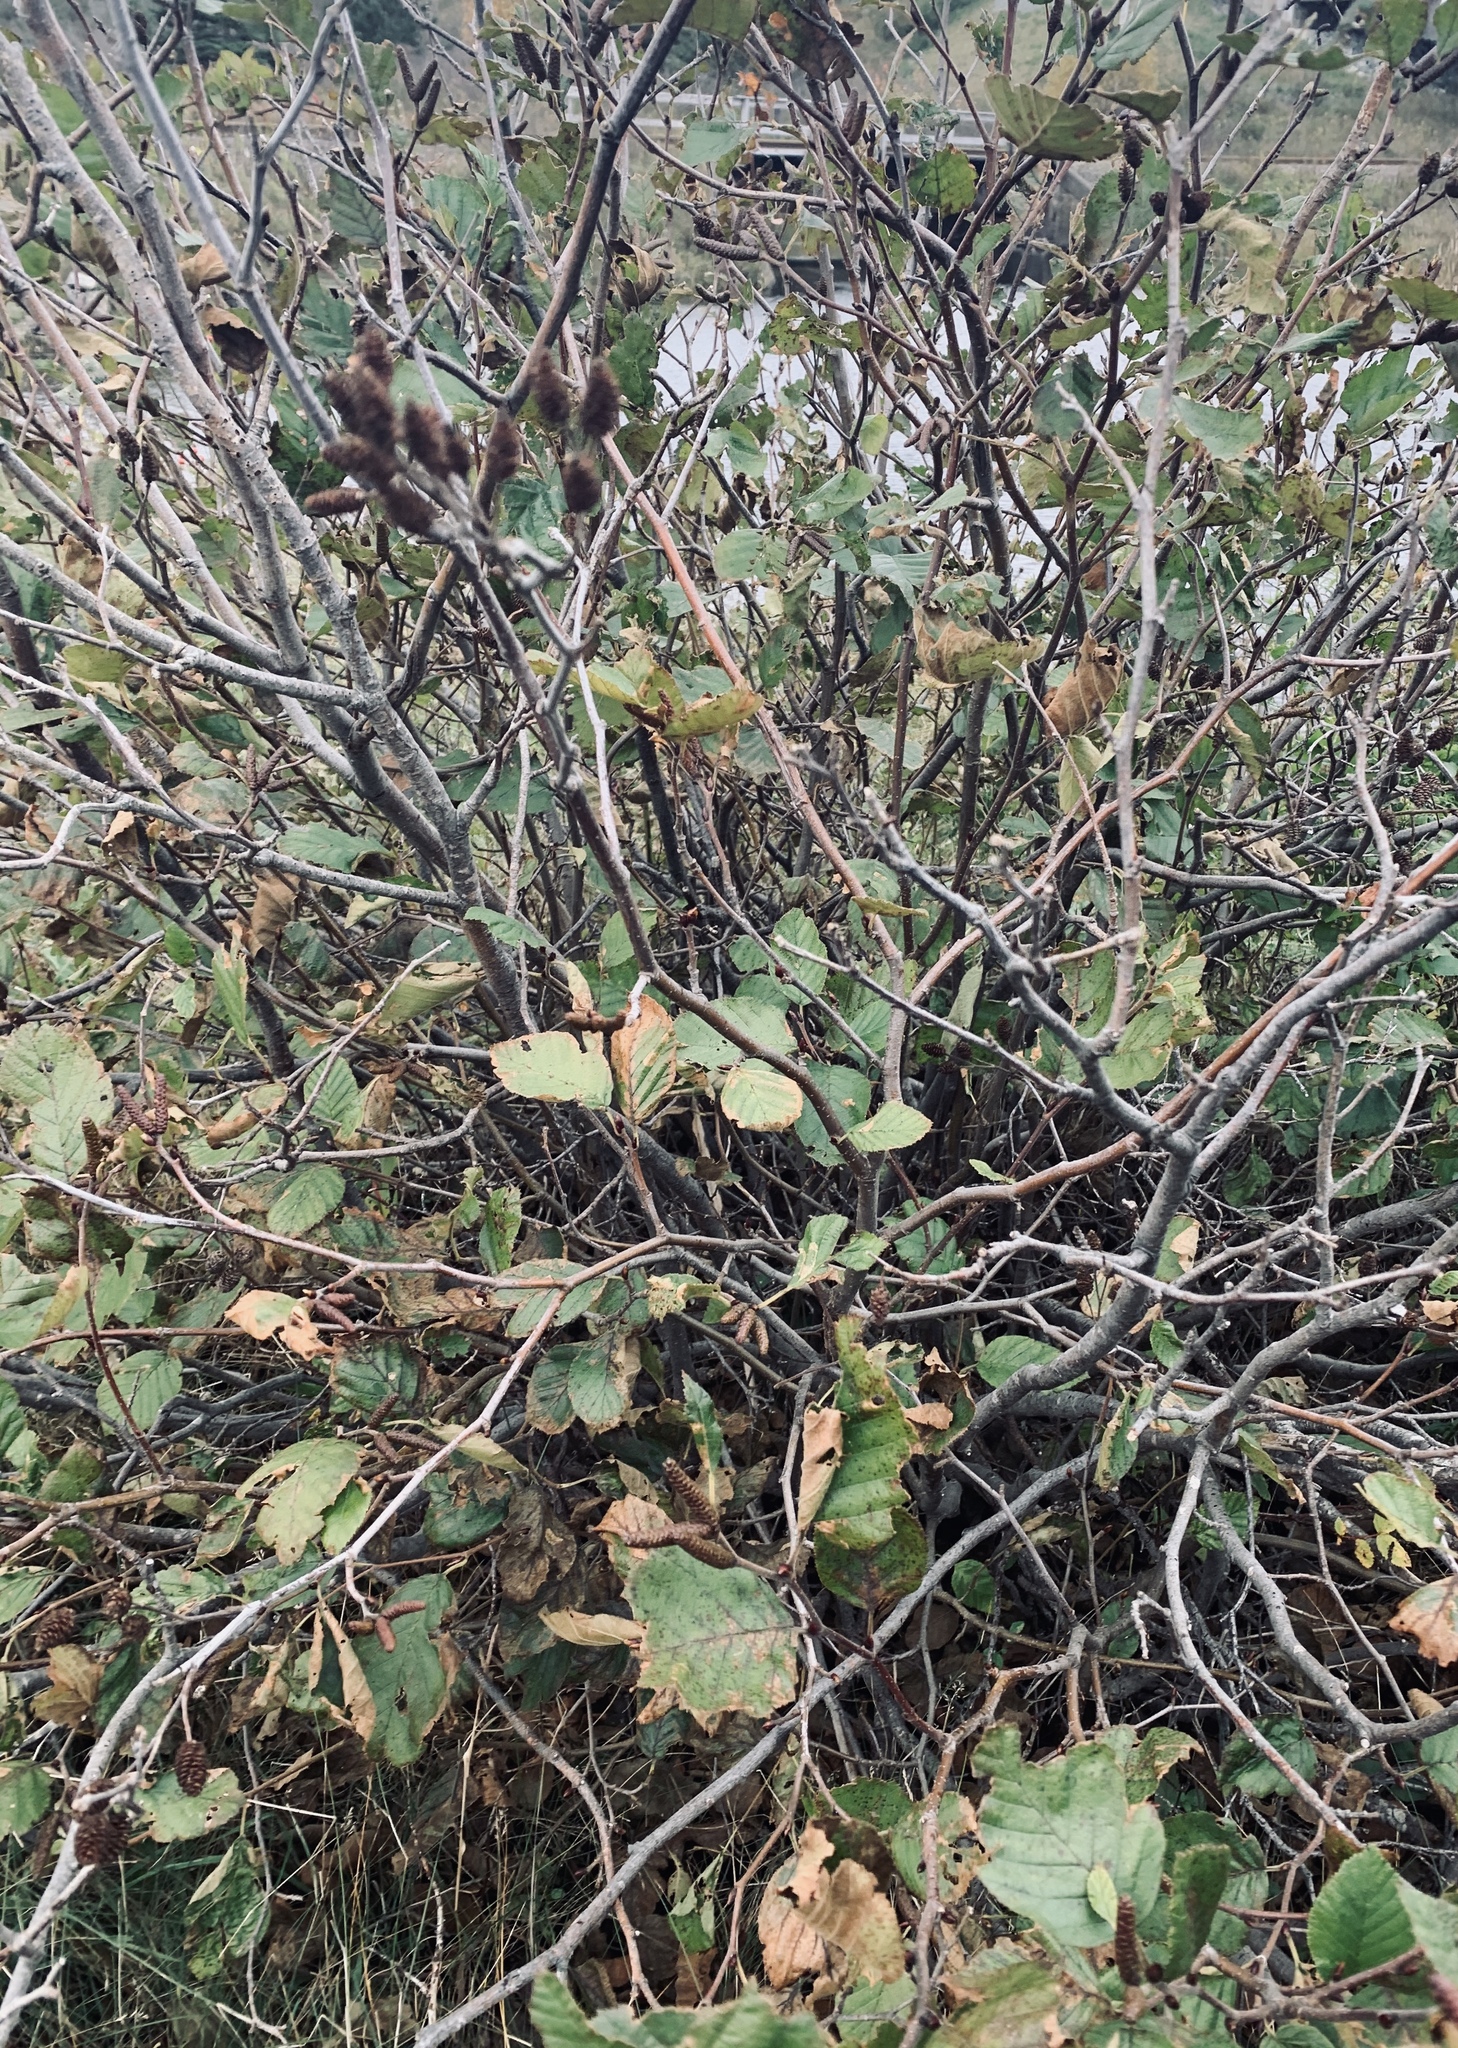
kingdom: Plantae
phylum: Tracheophyta
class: Magnoliopsida
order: Fagales
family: Betulaceae
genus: Alnus
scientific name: Alnus alnobetula
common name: Green alder
